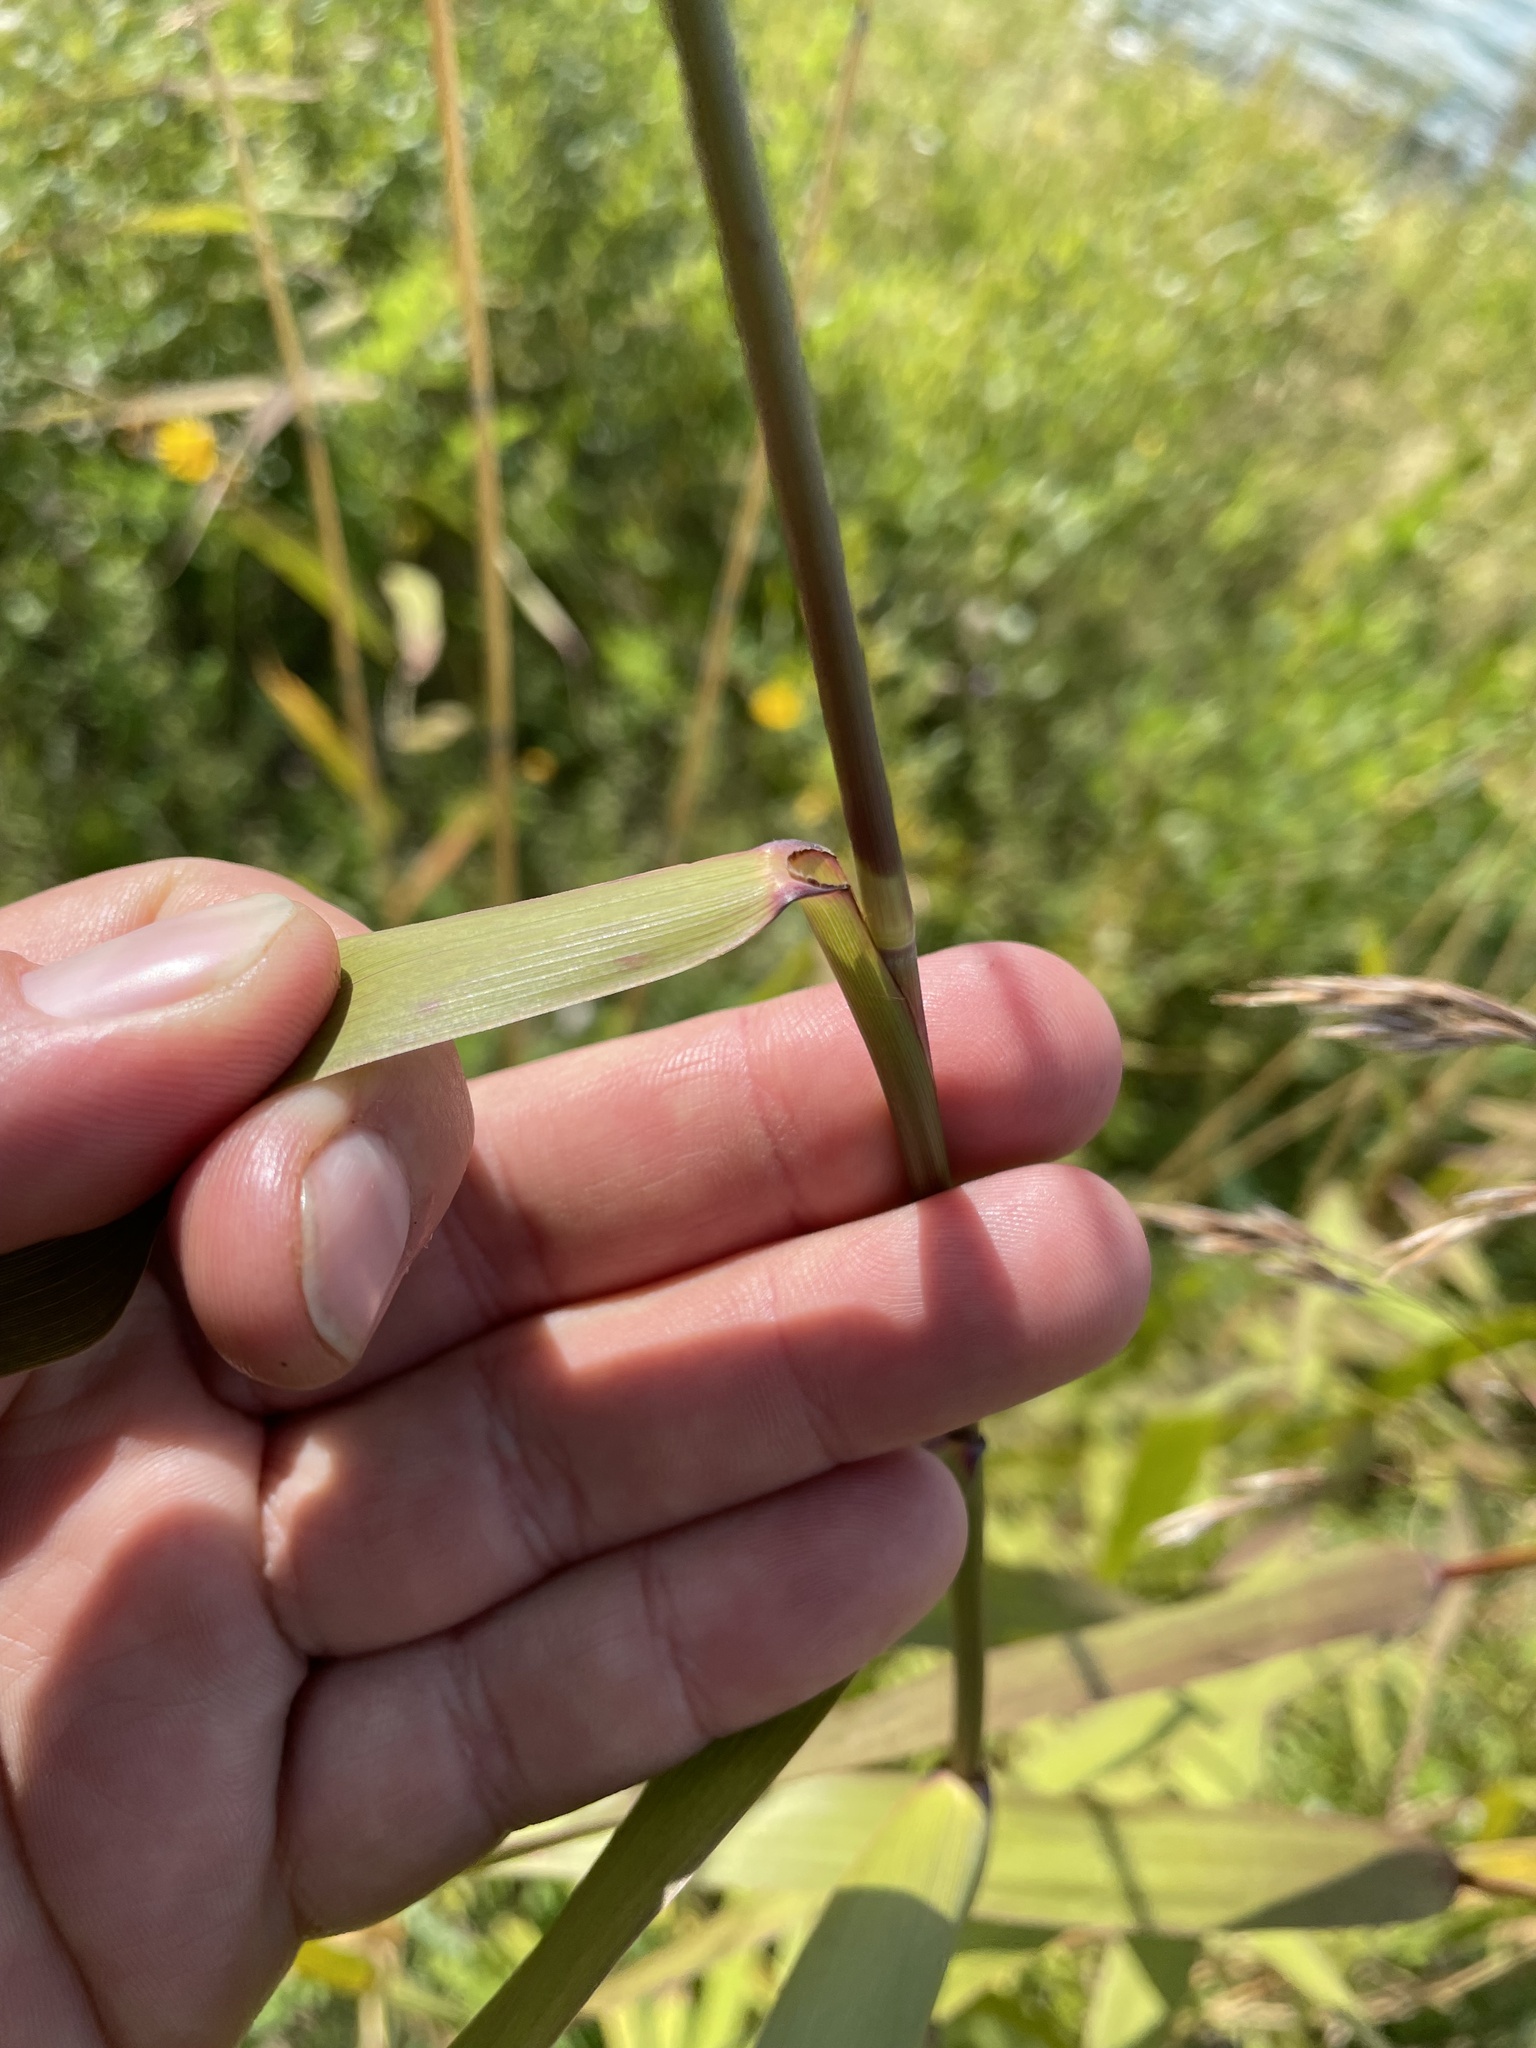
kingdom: Plantae
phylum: Tracheophyta
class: Liliopsida
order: Poales
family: Poaceae
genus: Phragmites
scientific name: Phragmites australis
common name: Common reed
